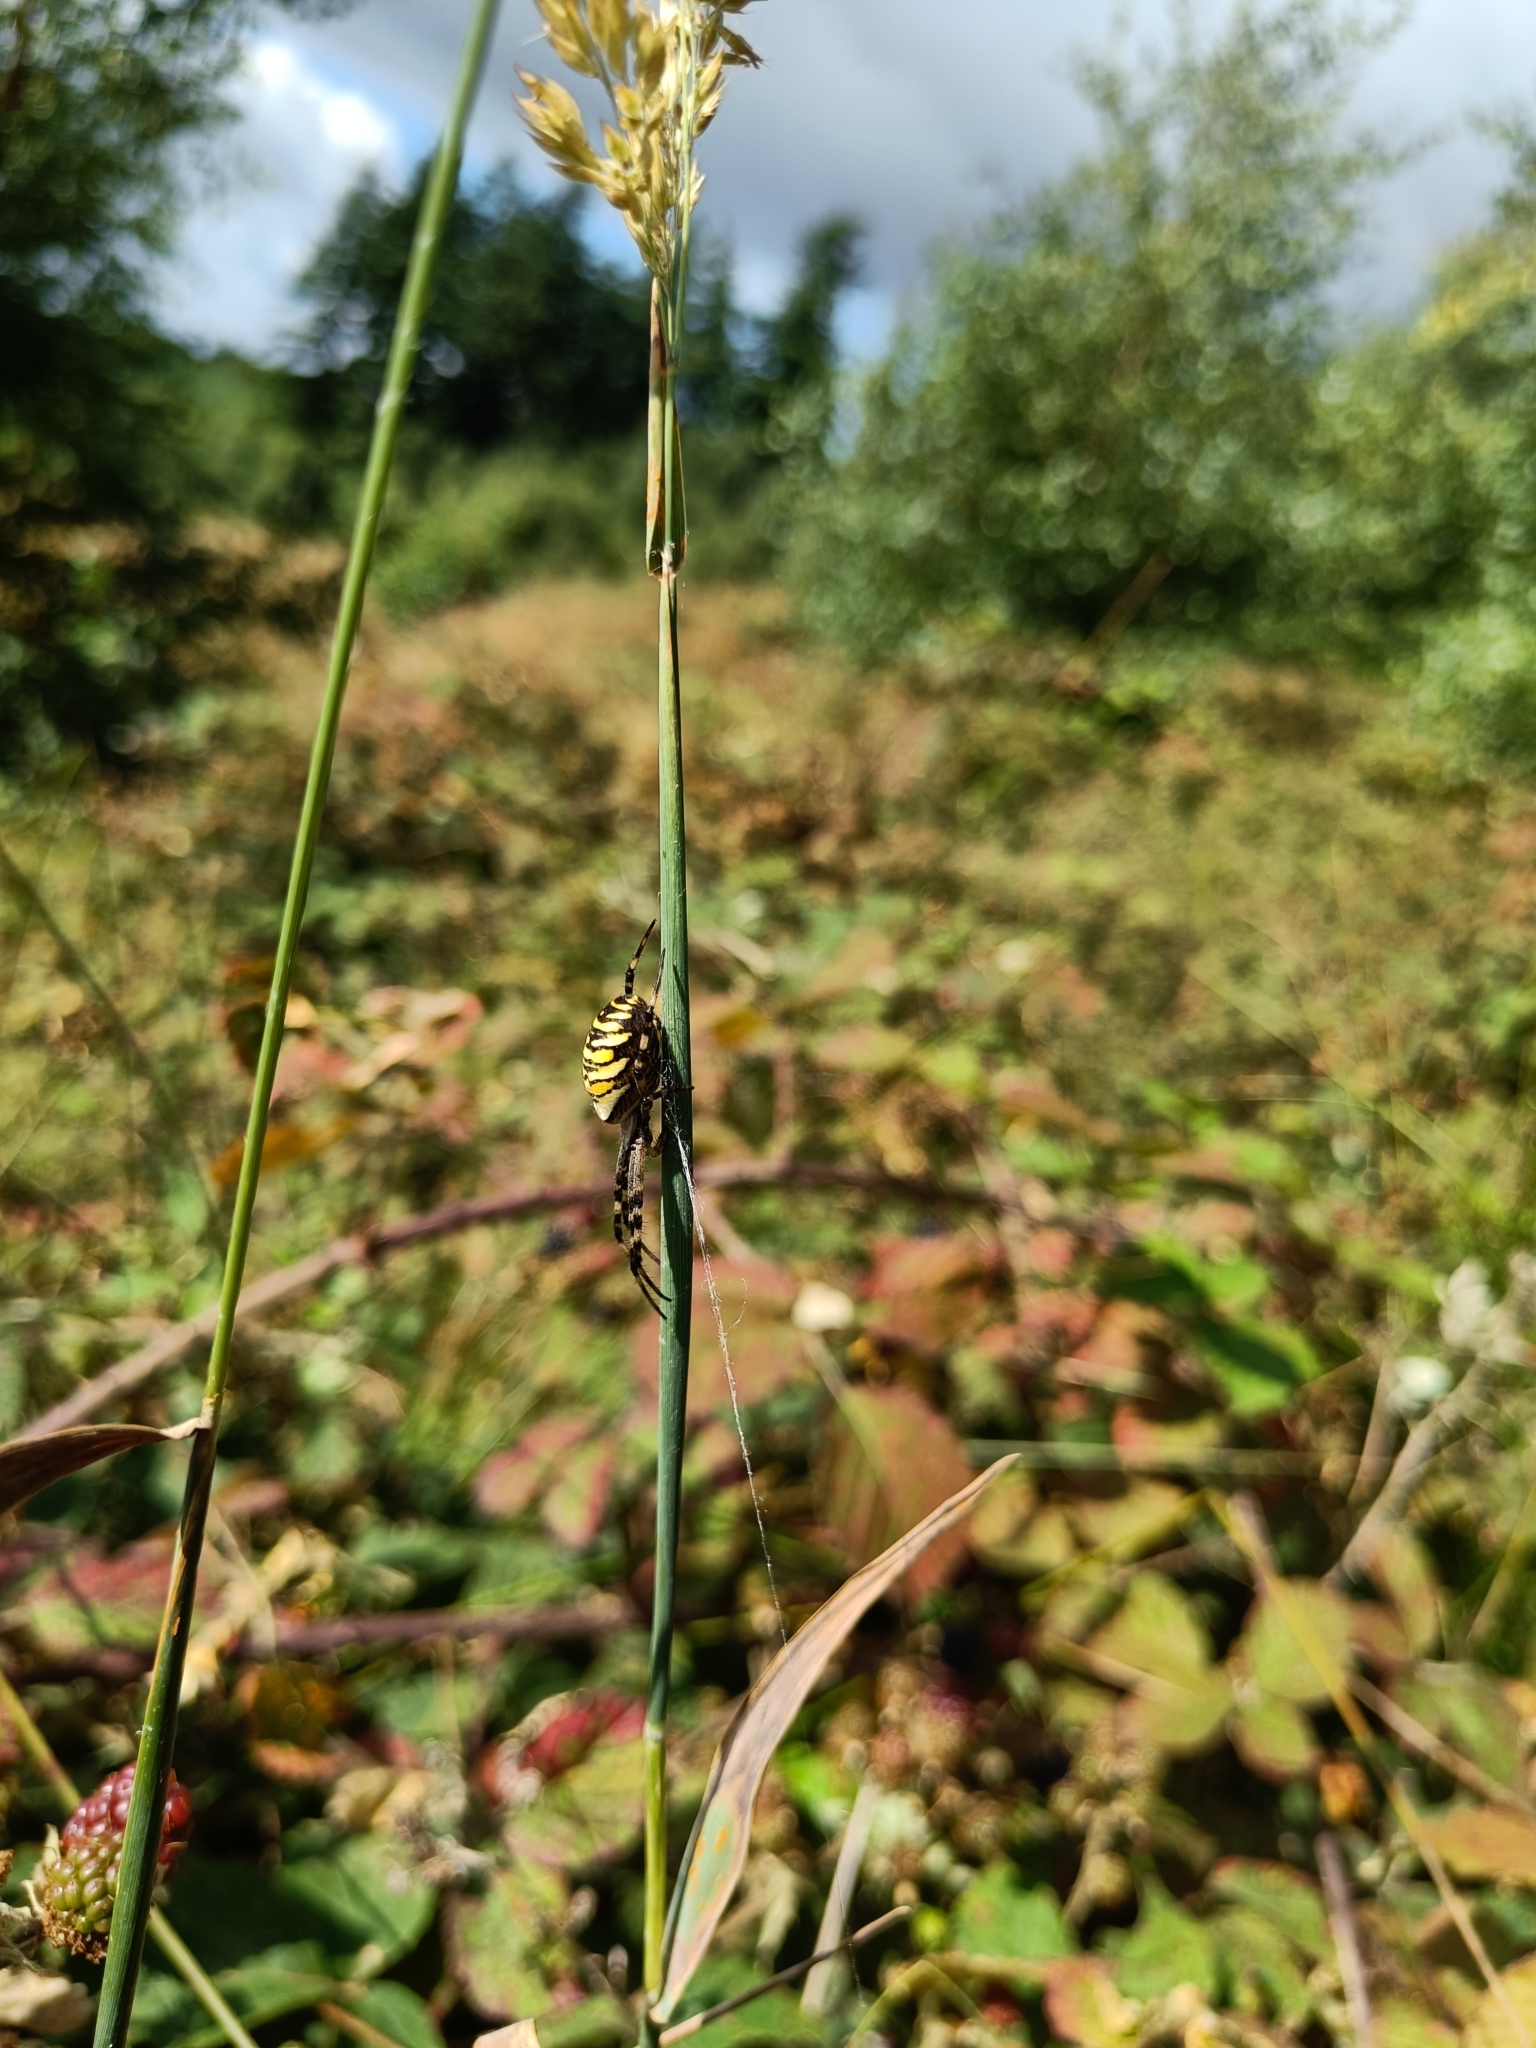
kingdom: Animalia
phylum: Arthropoda
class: Arachnida
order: Araneae
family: Araneidae
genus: Argiope
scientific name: Argiope bruennichi
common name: Wasp spider
